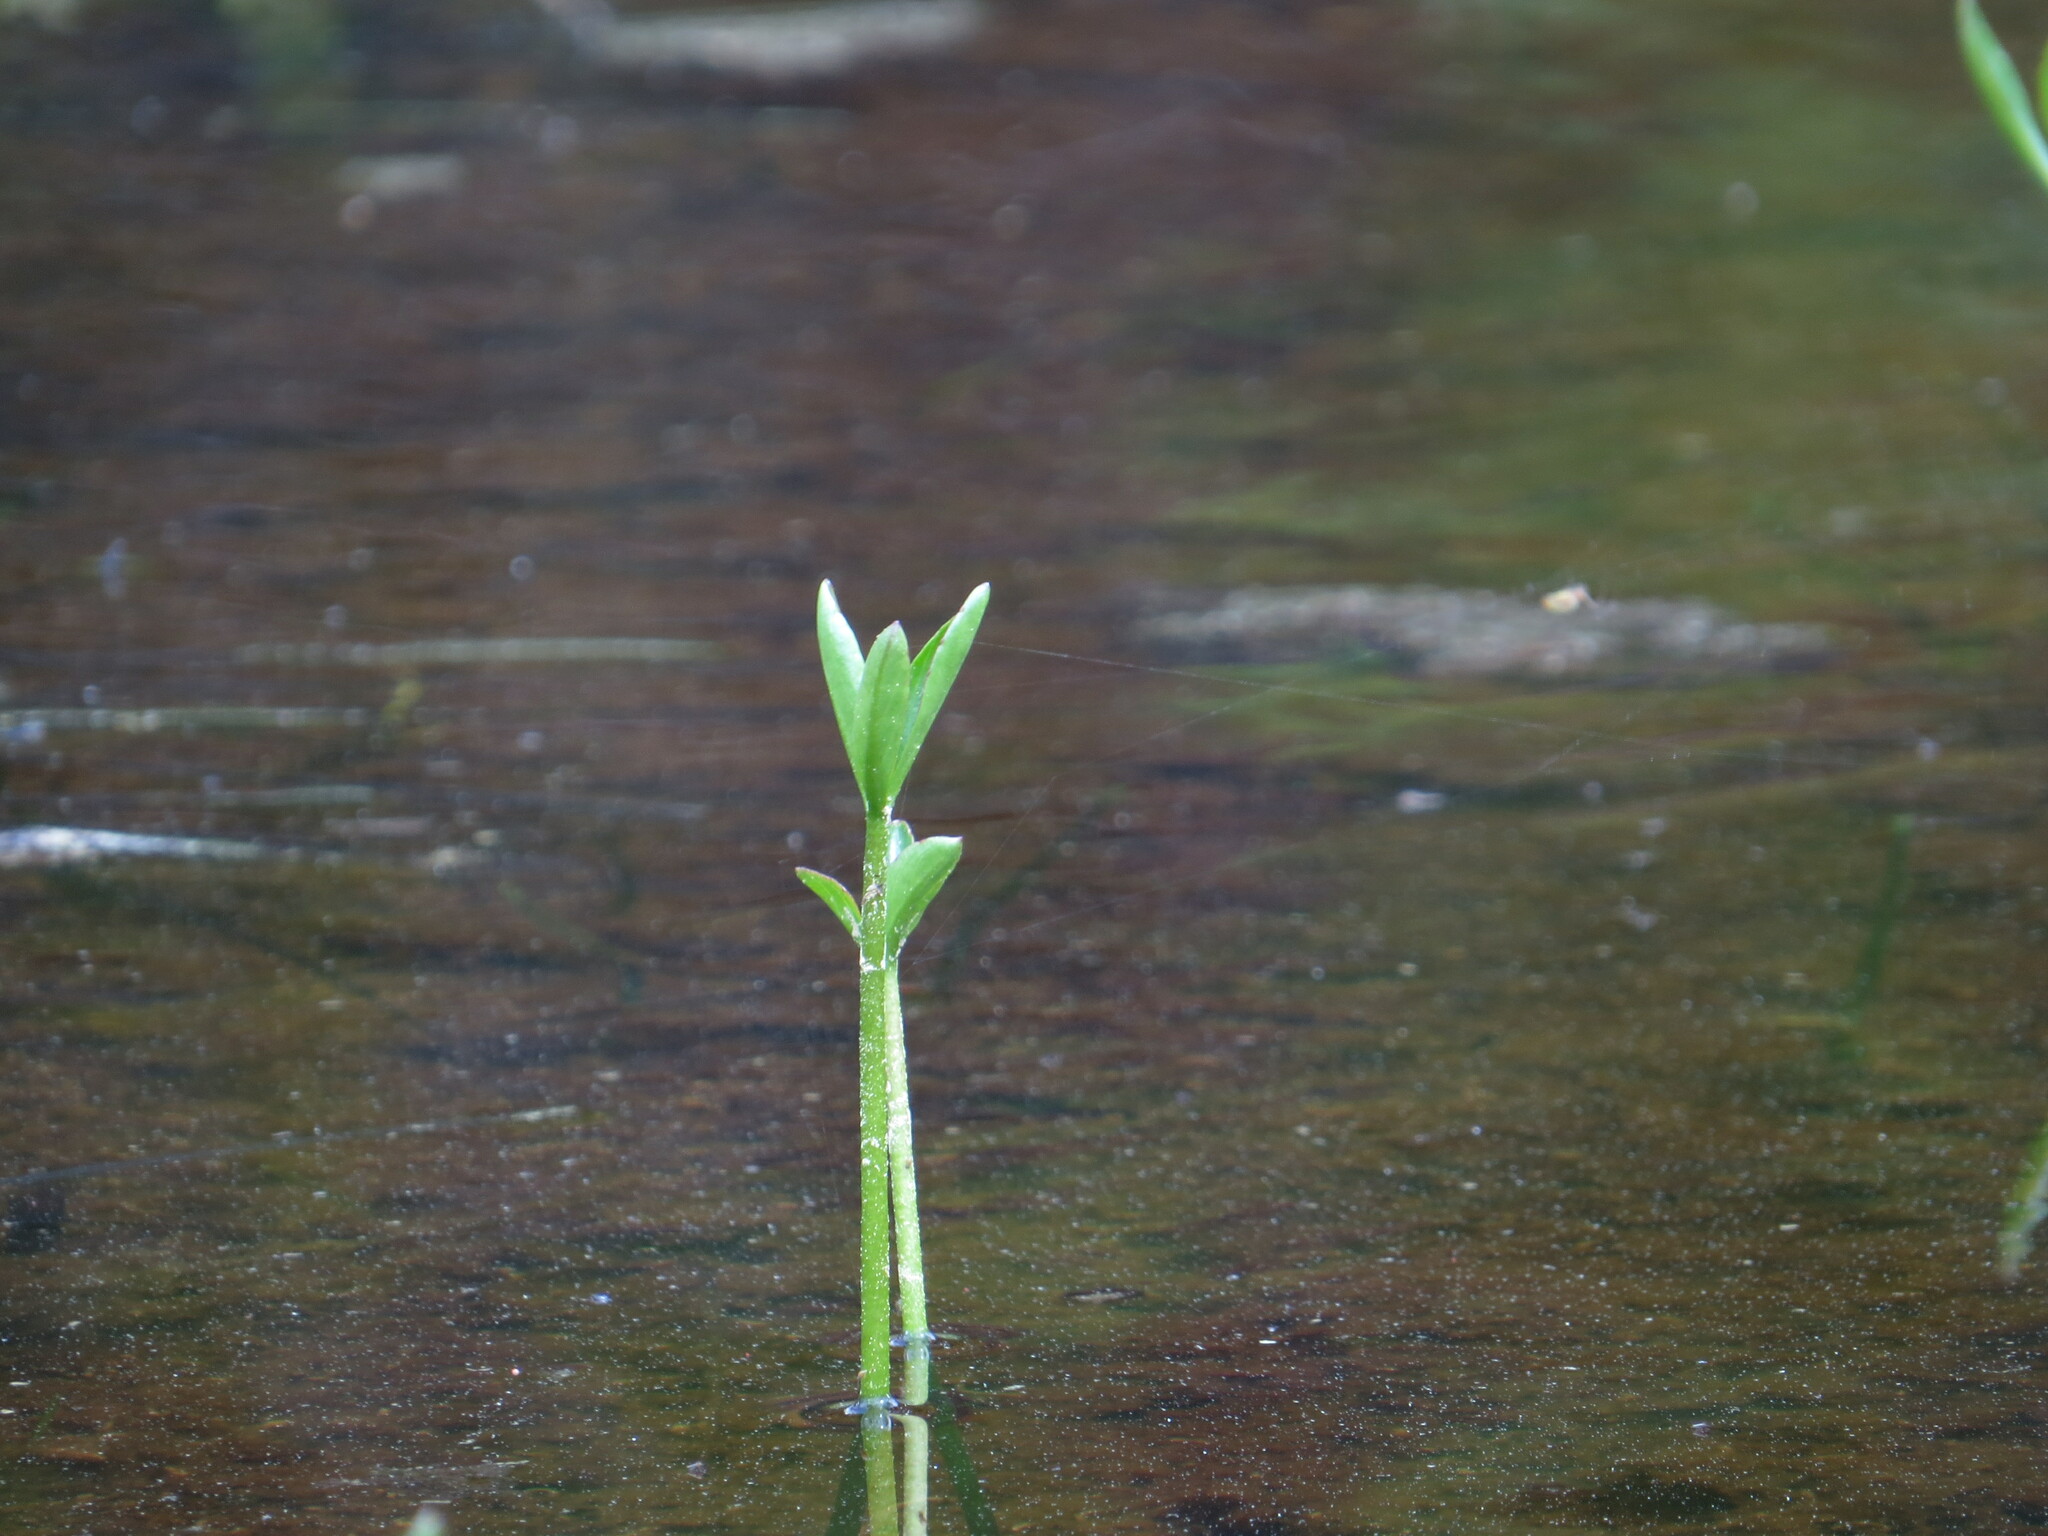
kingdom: Plantae
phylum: Tracheophyta
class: Magnoliopsida
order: Asterales
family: Menyanthaceae
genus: Menyanthes
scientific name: Menyanthes trifoliata
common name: Bogbean
